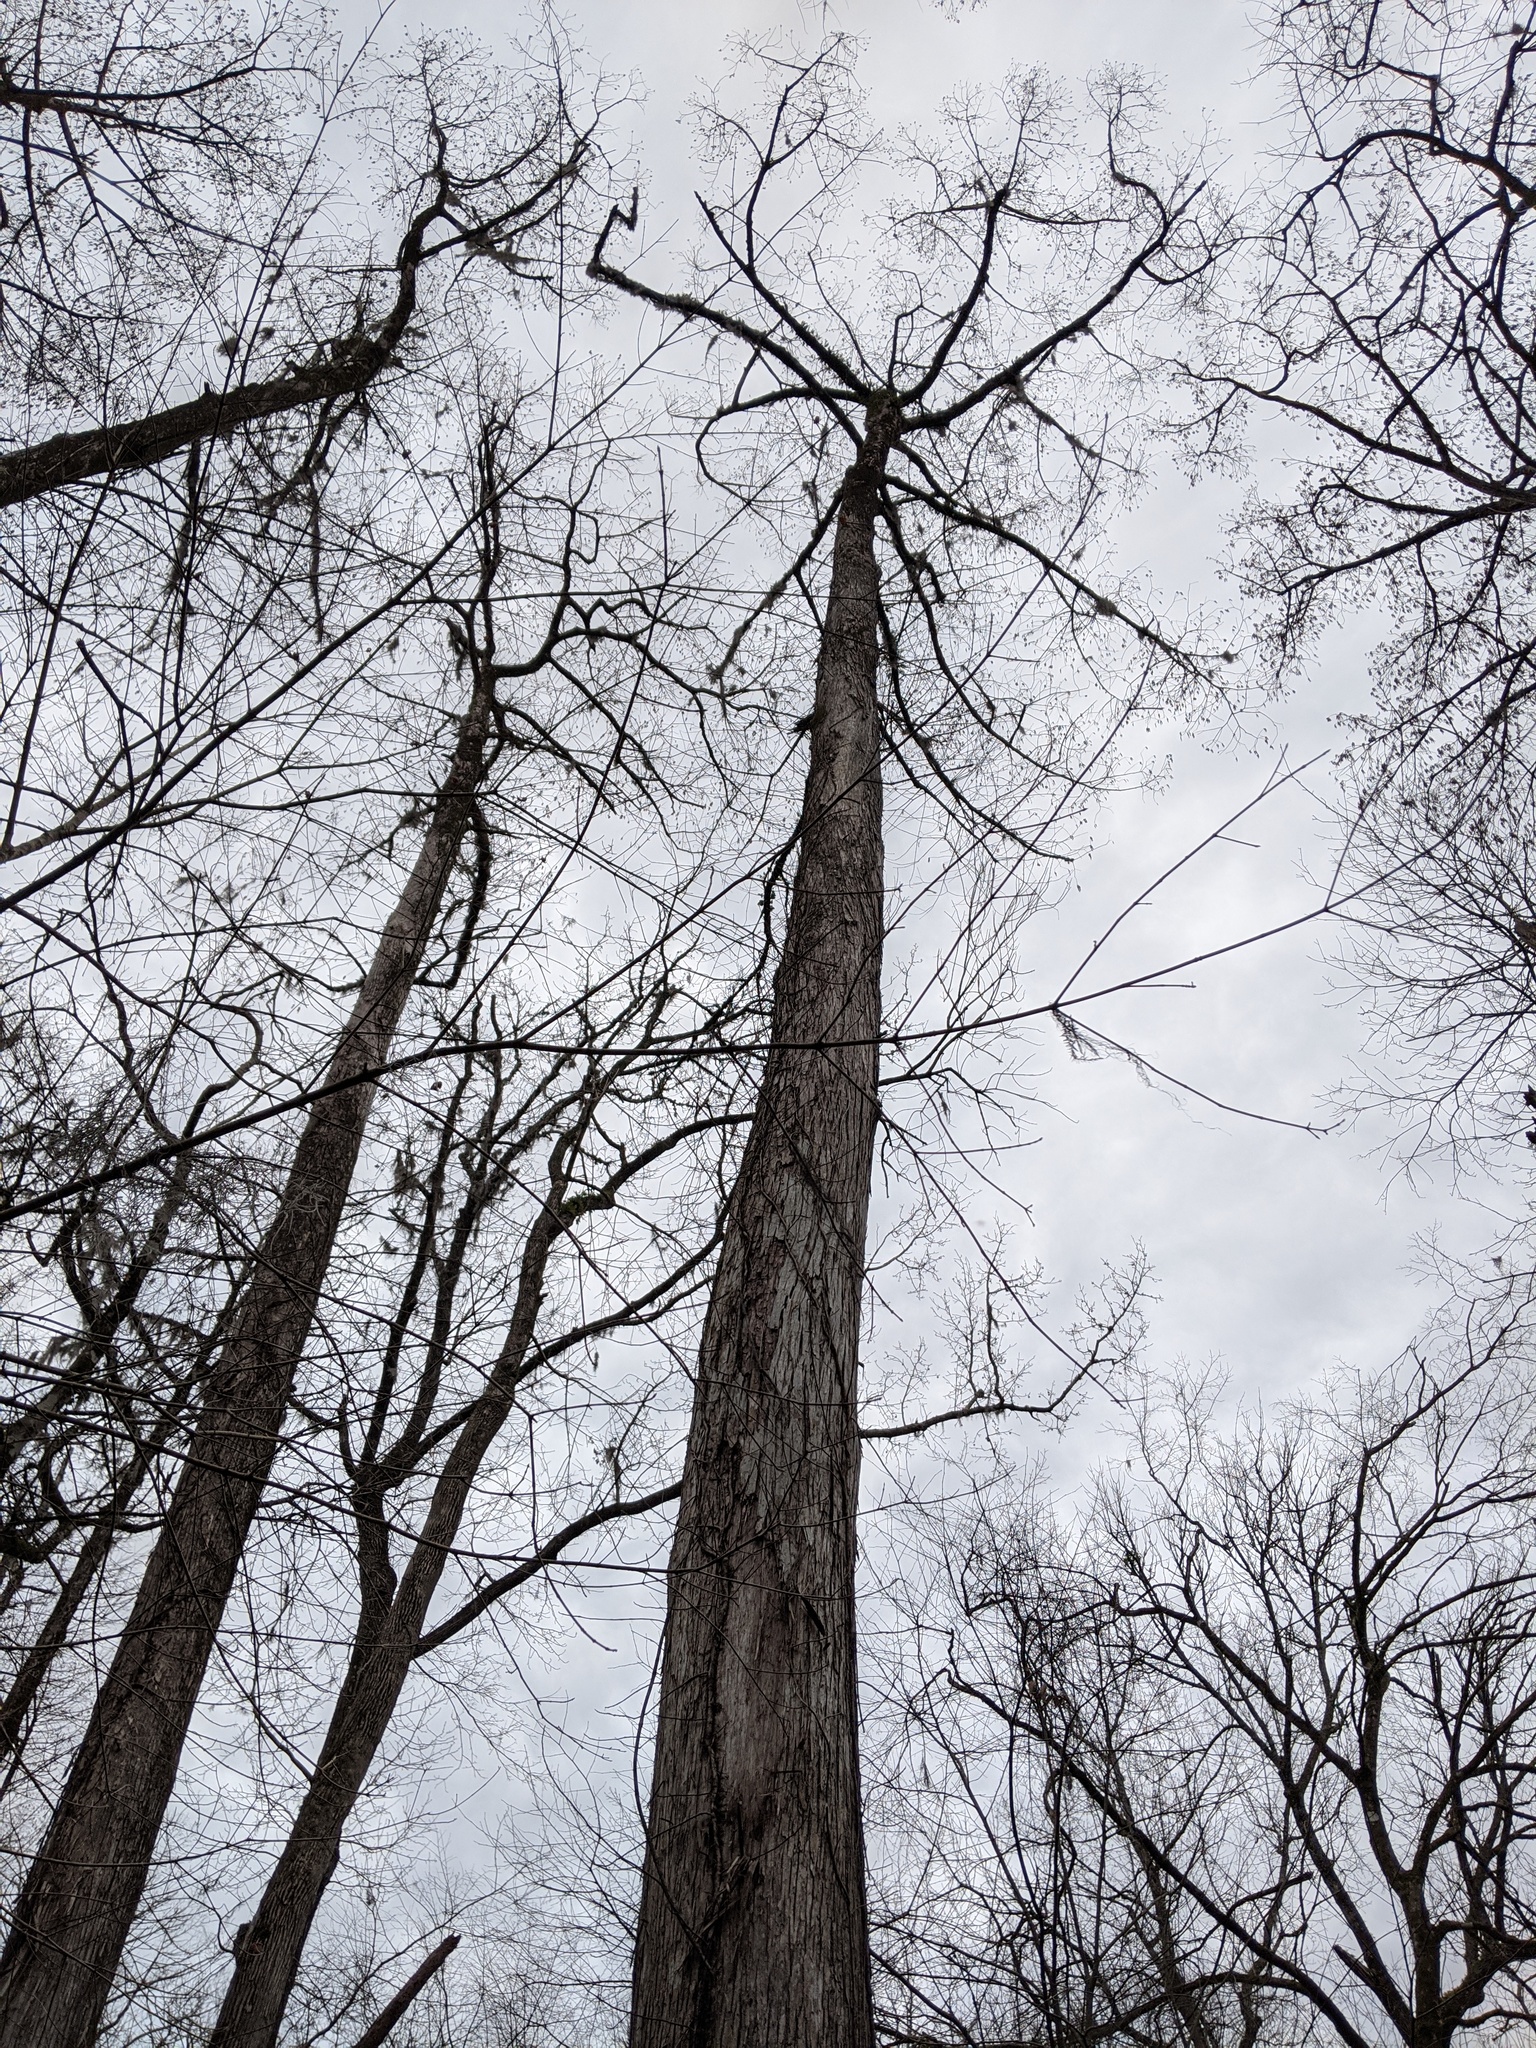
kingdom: Plantae
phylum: Tracheophyta
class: Pinopsida
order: Pinales
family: Cupressaceae
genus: Taxodium
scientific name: Taxodium distichum
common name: Bald cypress
